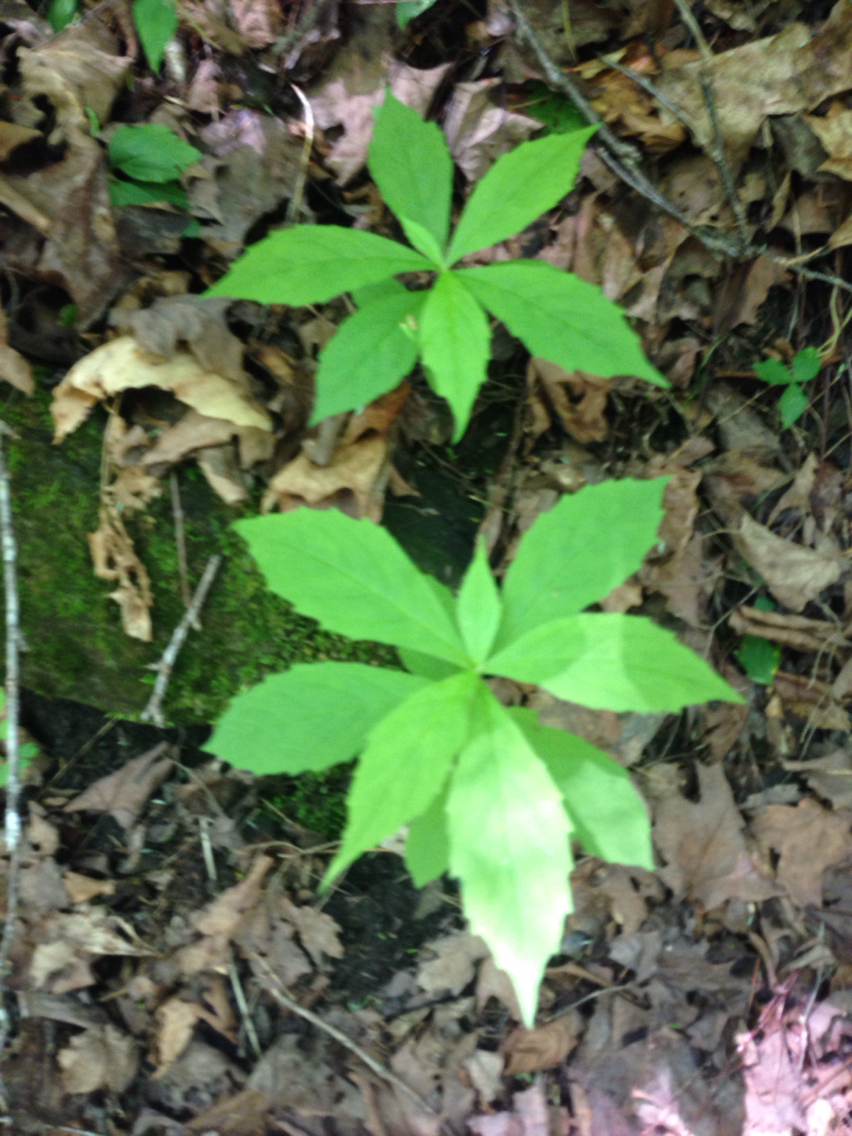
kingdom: Plantae
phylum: Tracheophyta
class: Magnoliopsida
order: Asterales
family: Asteraceae
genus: Oclemena
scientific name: Oclemena acuminata
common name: Mountain aster
